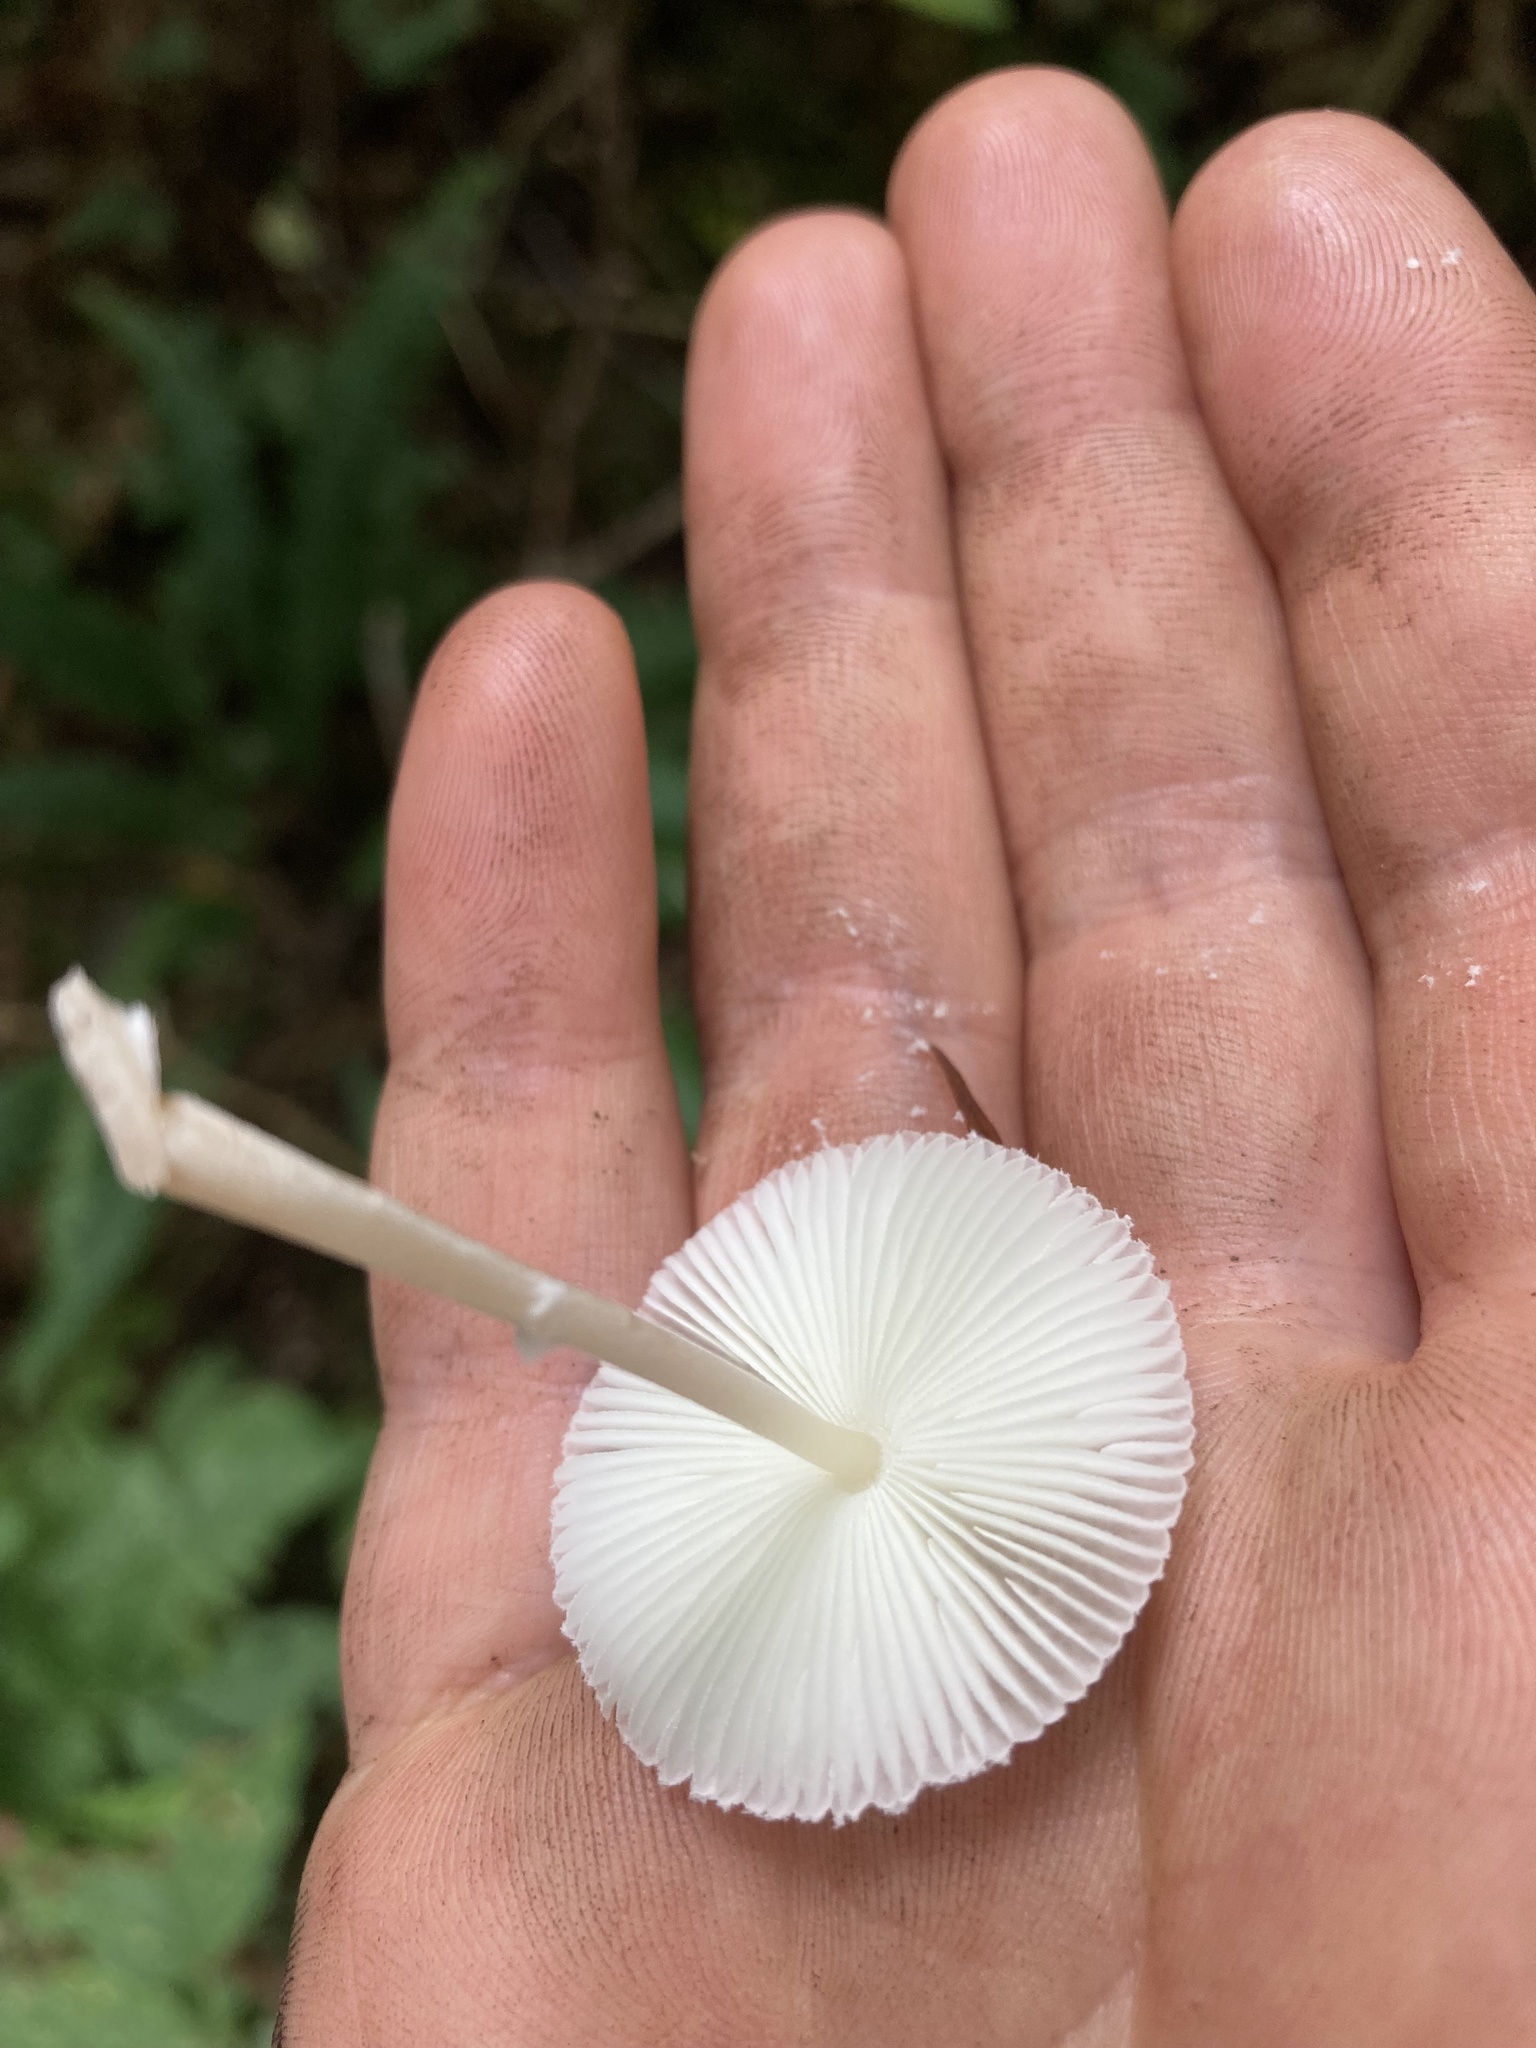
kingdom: Fungi
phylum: Basidiomycota
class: Agaricomycetes
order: Agaricales
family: Agaricaceae
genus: Leucocoprinus
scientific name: Leucocoprinus brebissonii
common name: Skullcap dapperling
